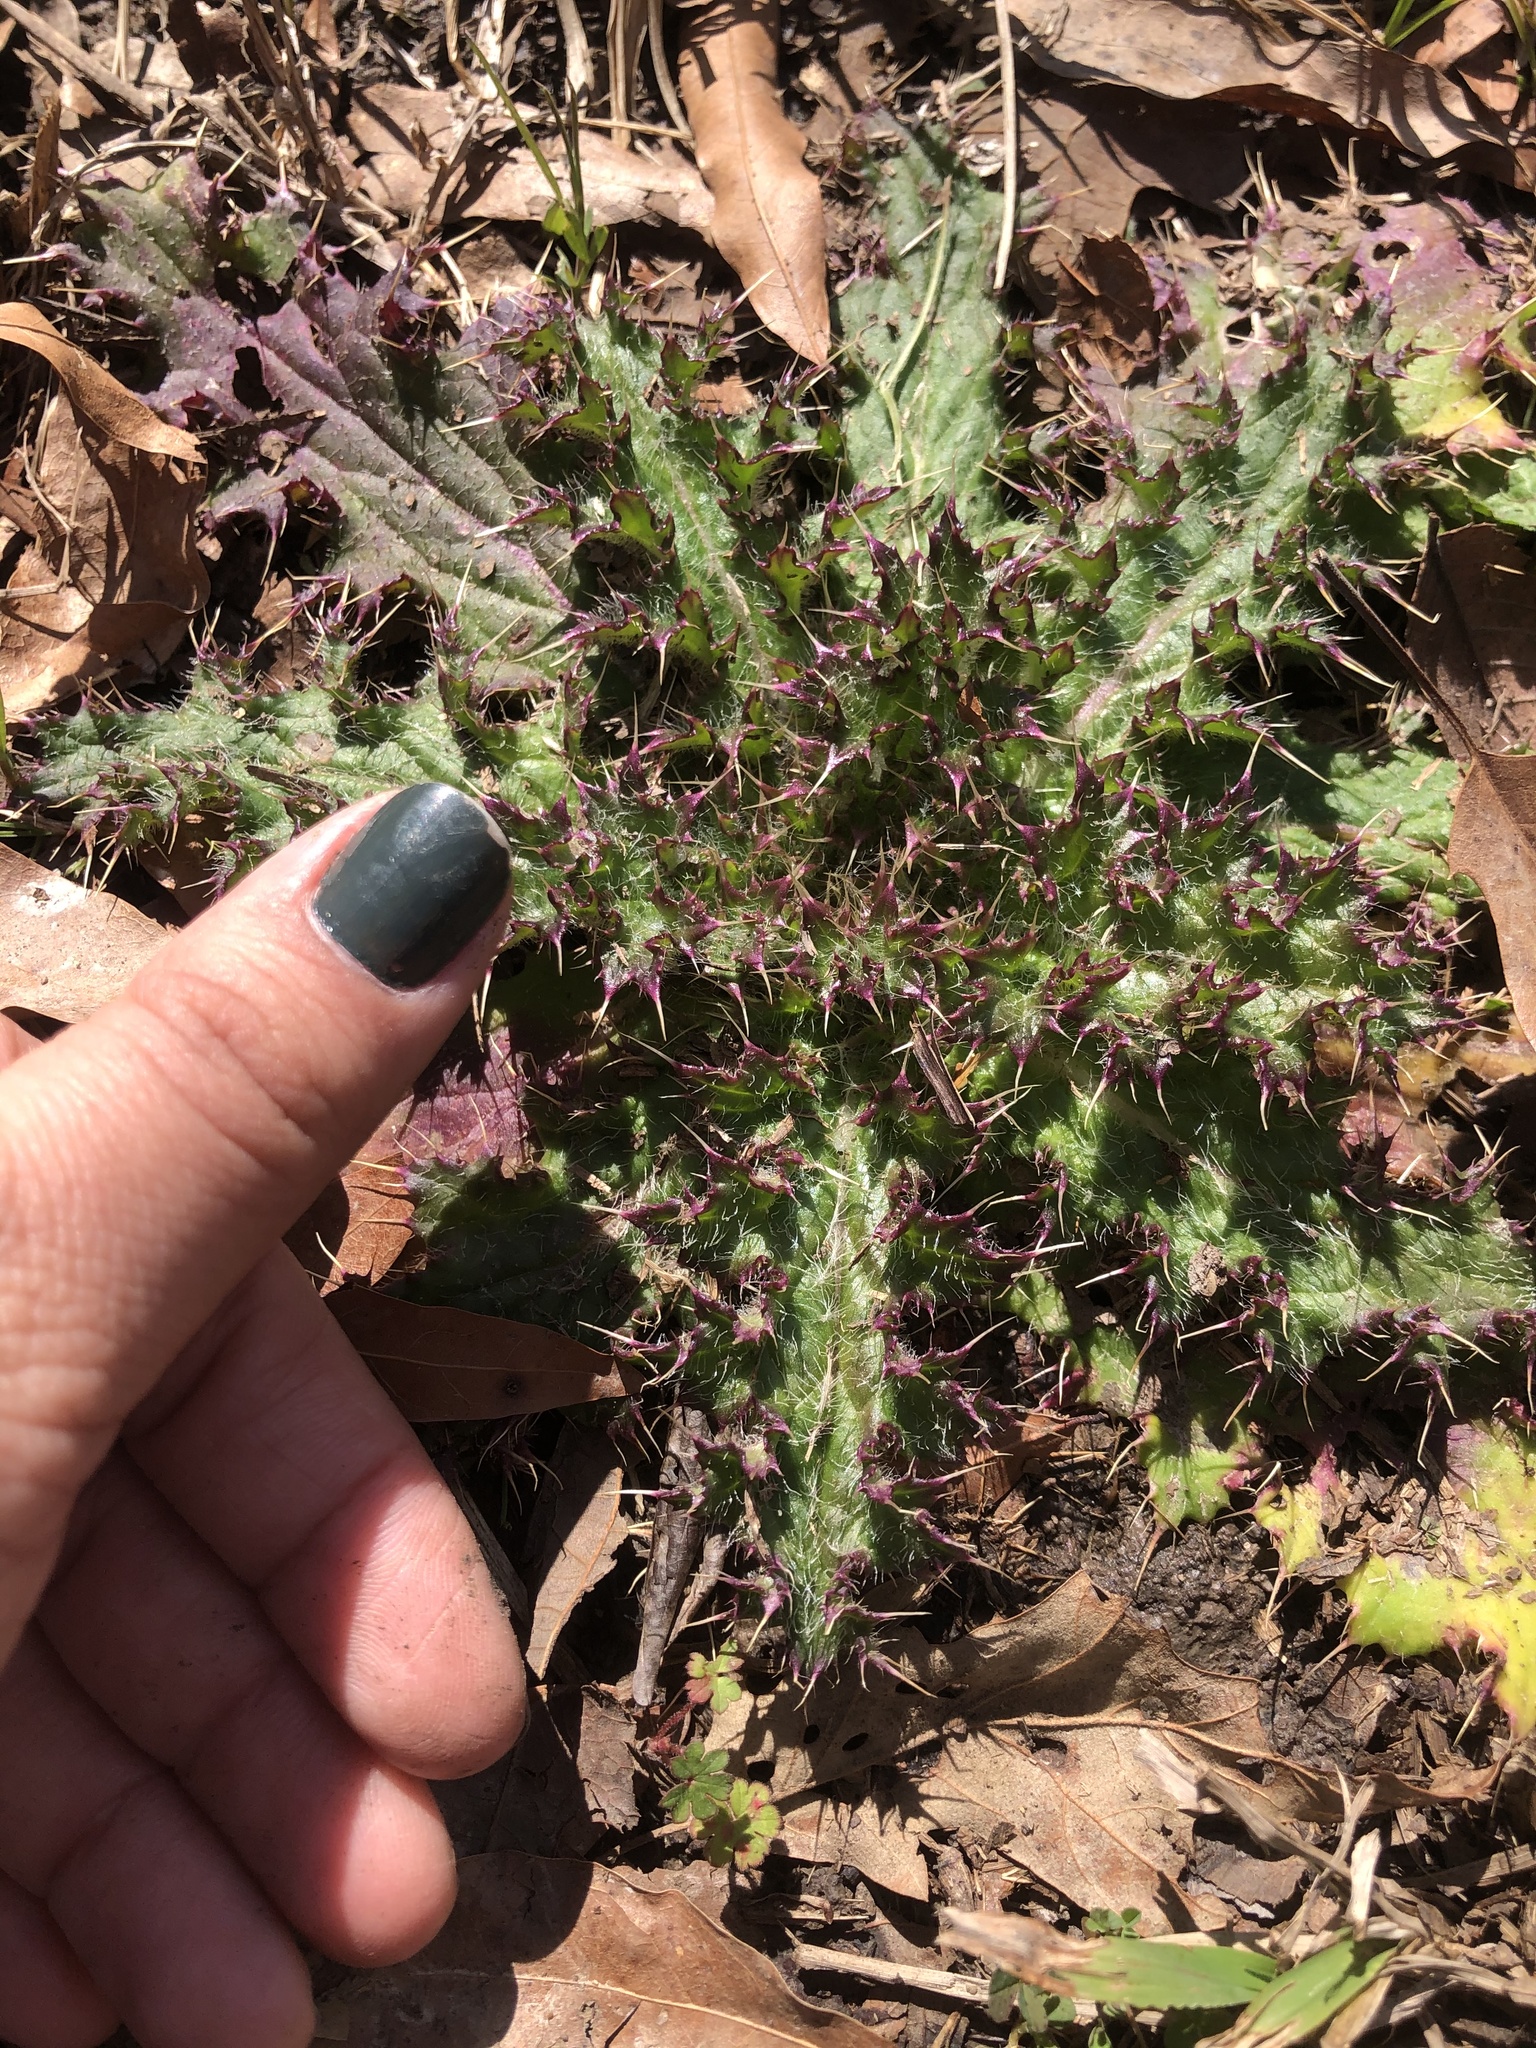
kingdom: Plantae
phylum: Tracheophyta
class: Magnoliopsida
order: Asterales
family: Asteraceae
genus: Cirsium
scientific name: Cirsium horridulum
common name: Bristly thistle
